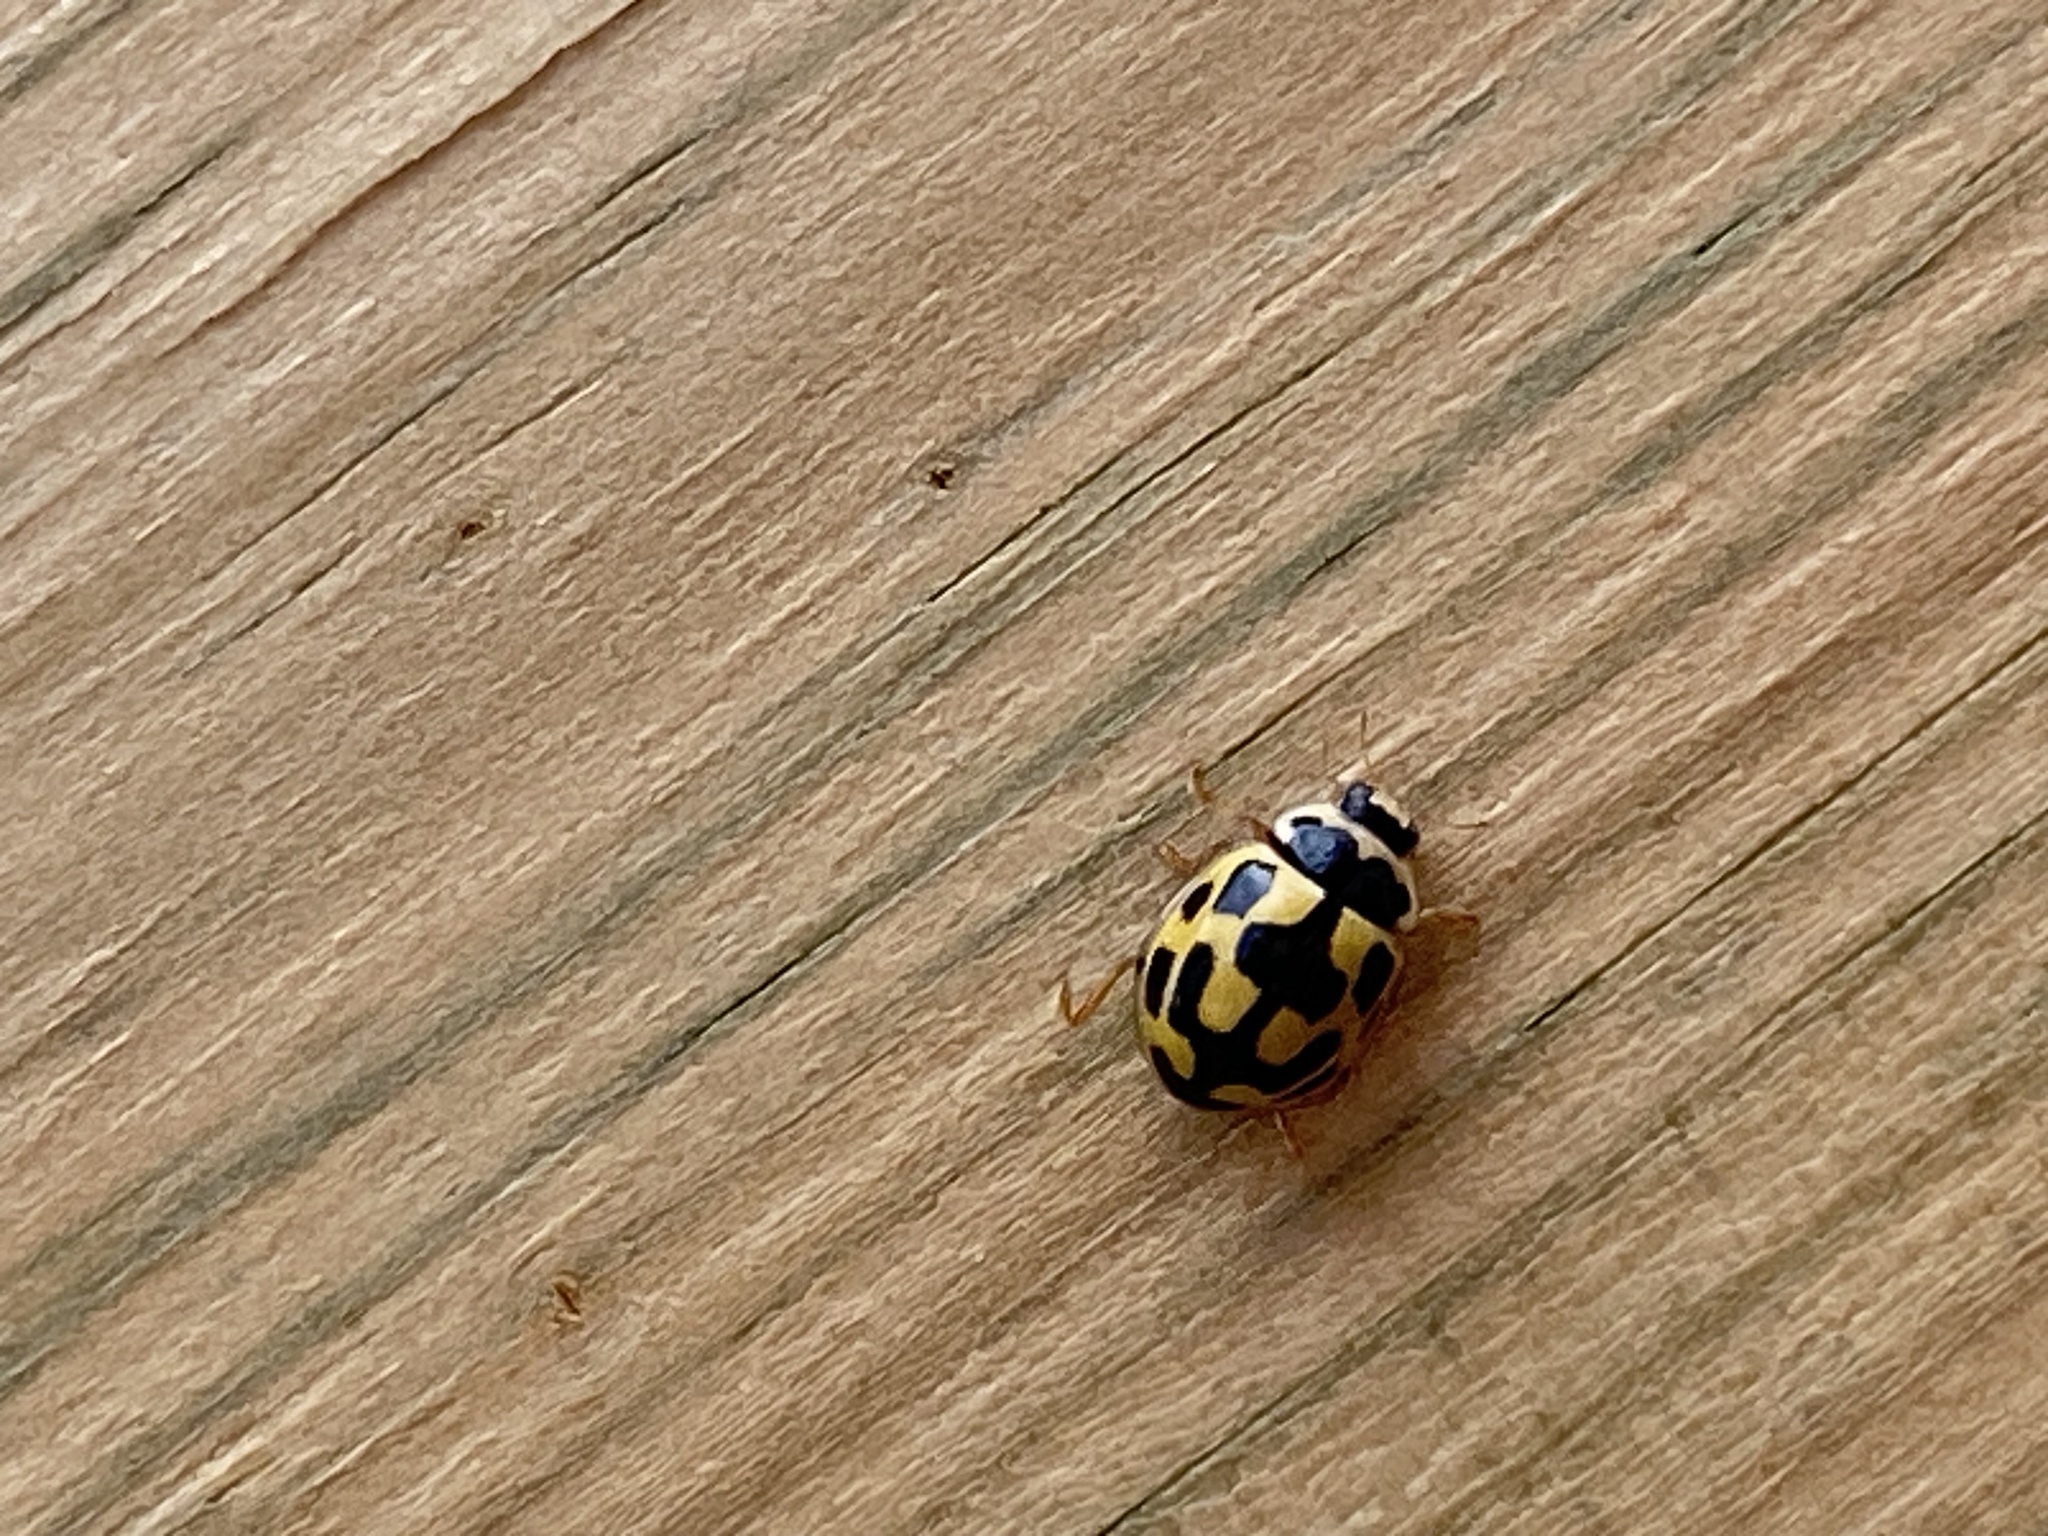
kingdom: Animalia
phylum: Arthropoda
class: Insecta
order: Coleoptera
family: Coccinellidae
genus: Propylaea
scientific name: Propylaea quatuordecimpunctata
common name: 14-spotted ladybird beetle
